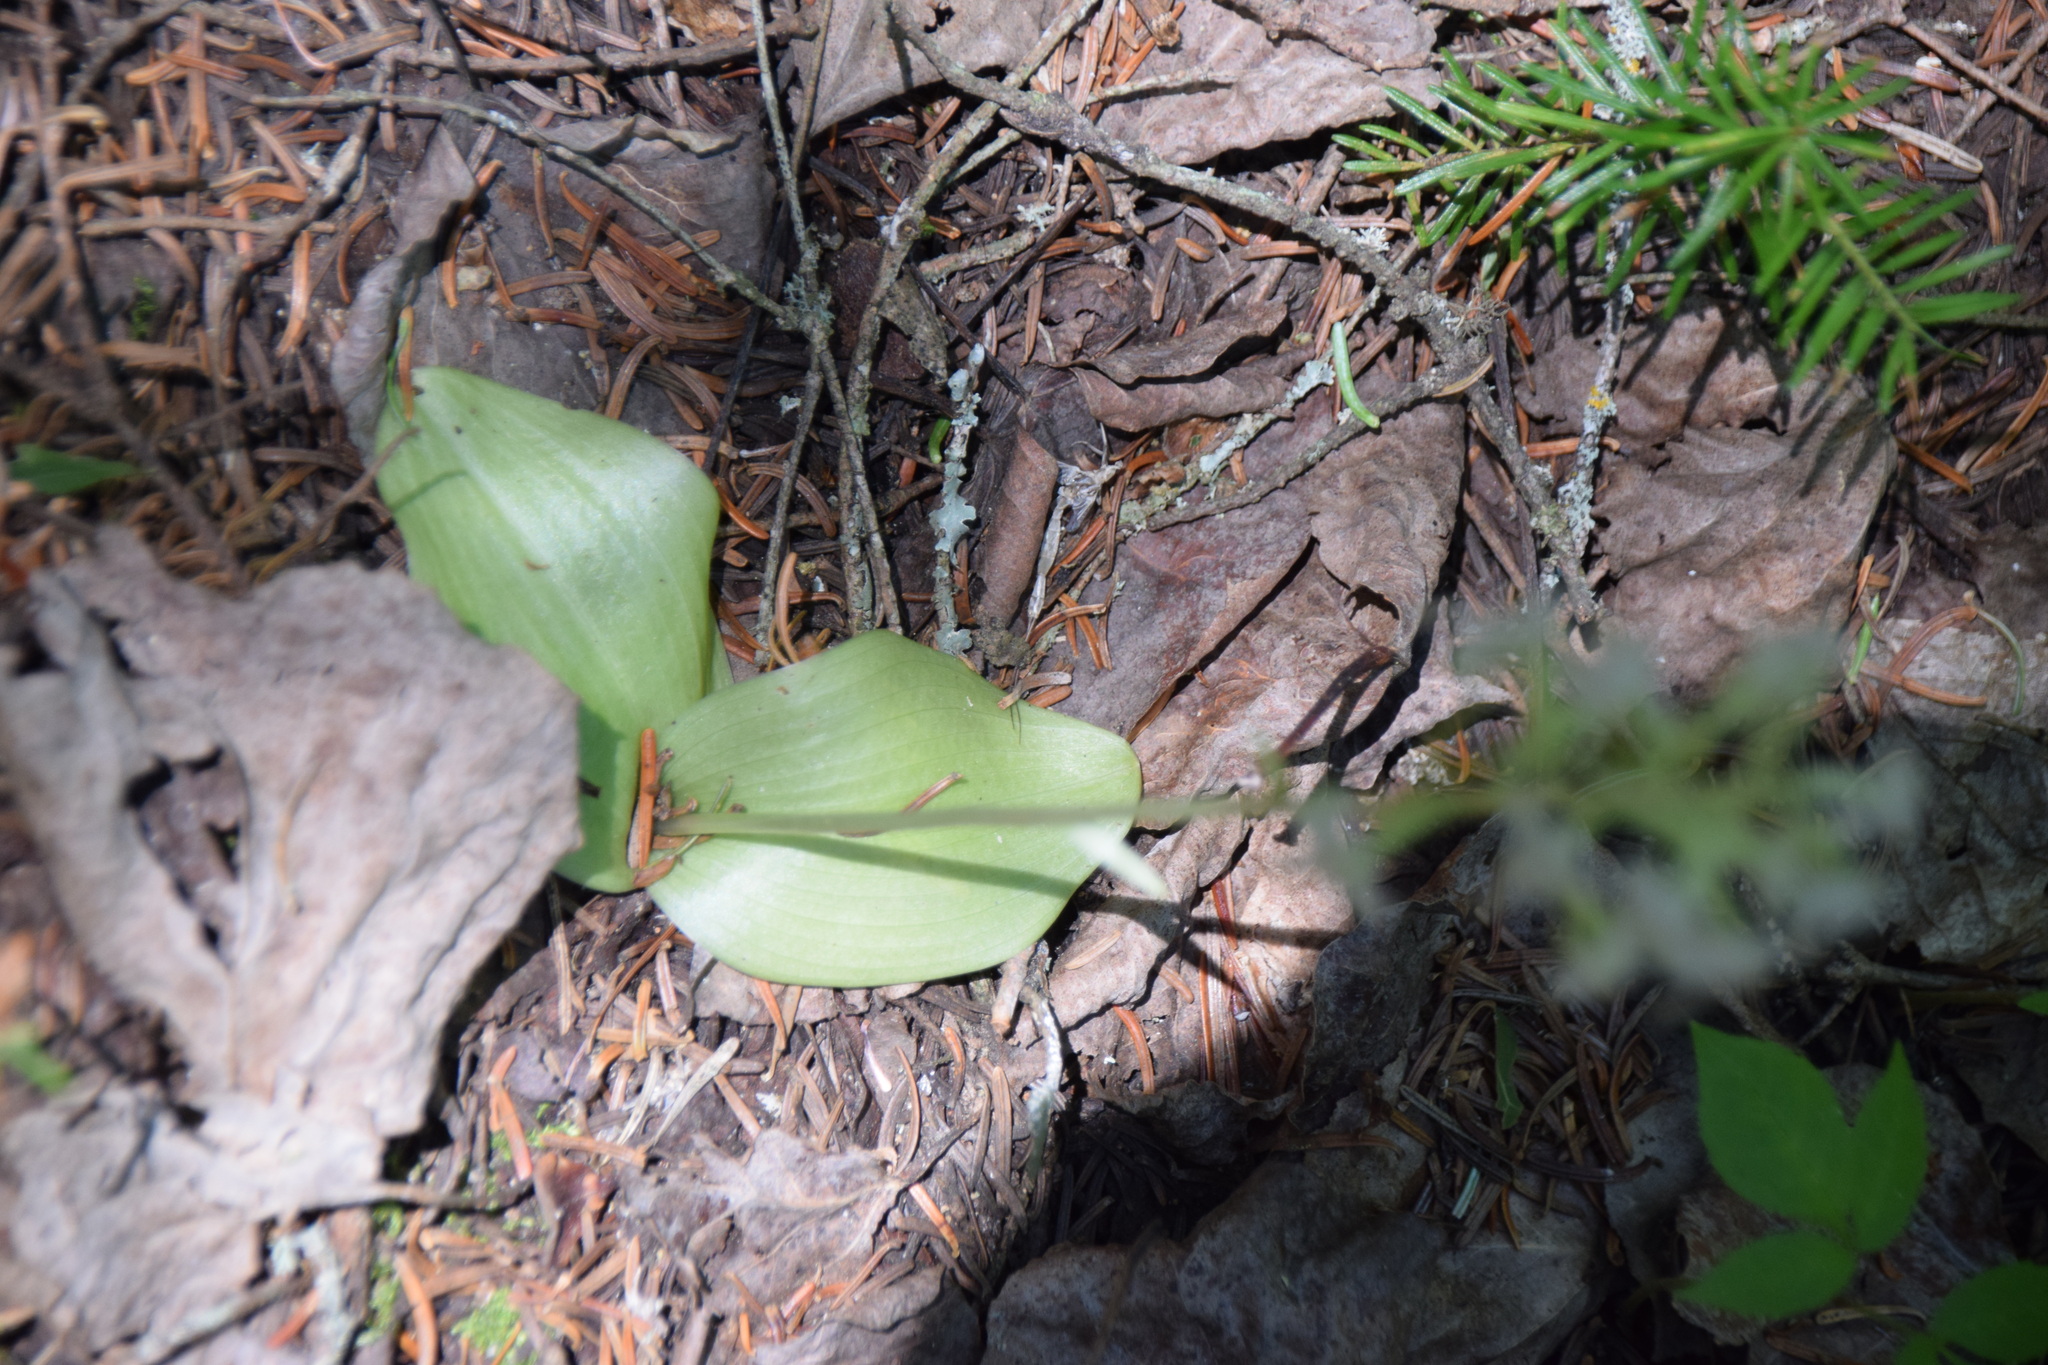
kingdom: Plantae
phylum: Tracheophyta
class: Liliopsida
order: Asparagales
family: Orchidaceae
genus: Platanthera
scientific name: Platanthera orbiculata
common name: Large round-leaved orchid
